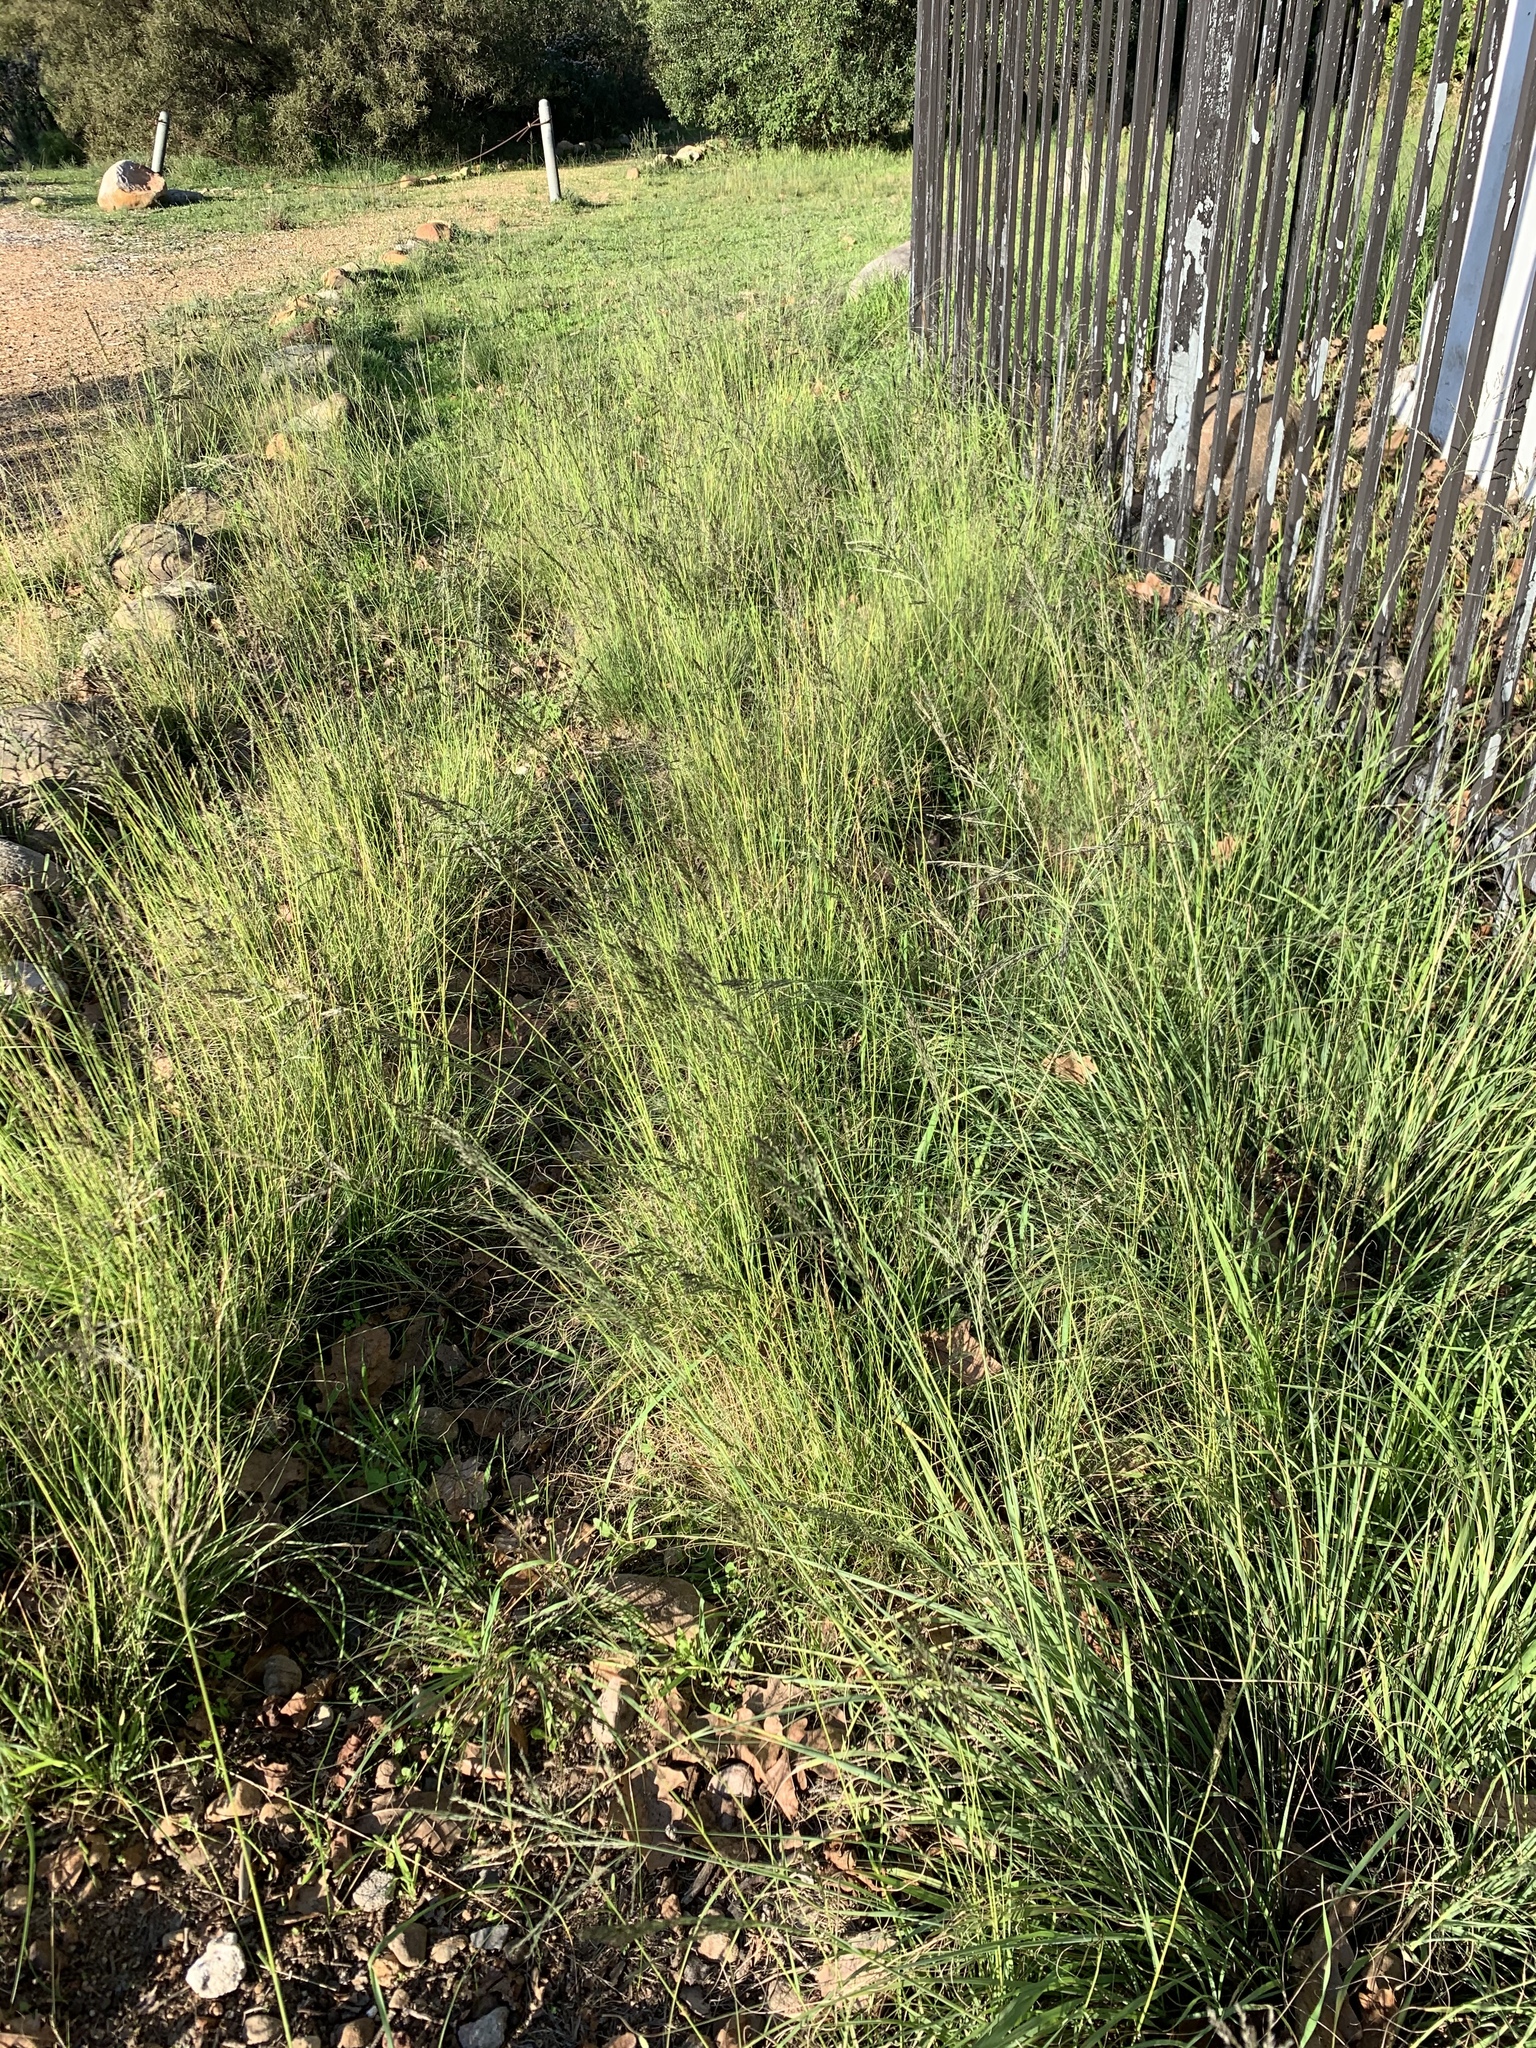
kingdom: Plantae
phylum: Tracheophyta
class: Liliopsida
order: Poales
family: Poaceae
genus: Eragrostis
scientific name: Eragrostis curvula
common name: African love-grass
